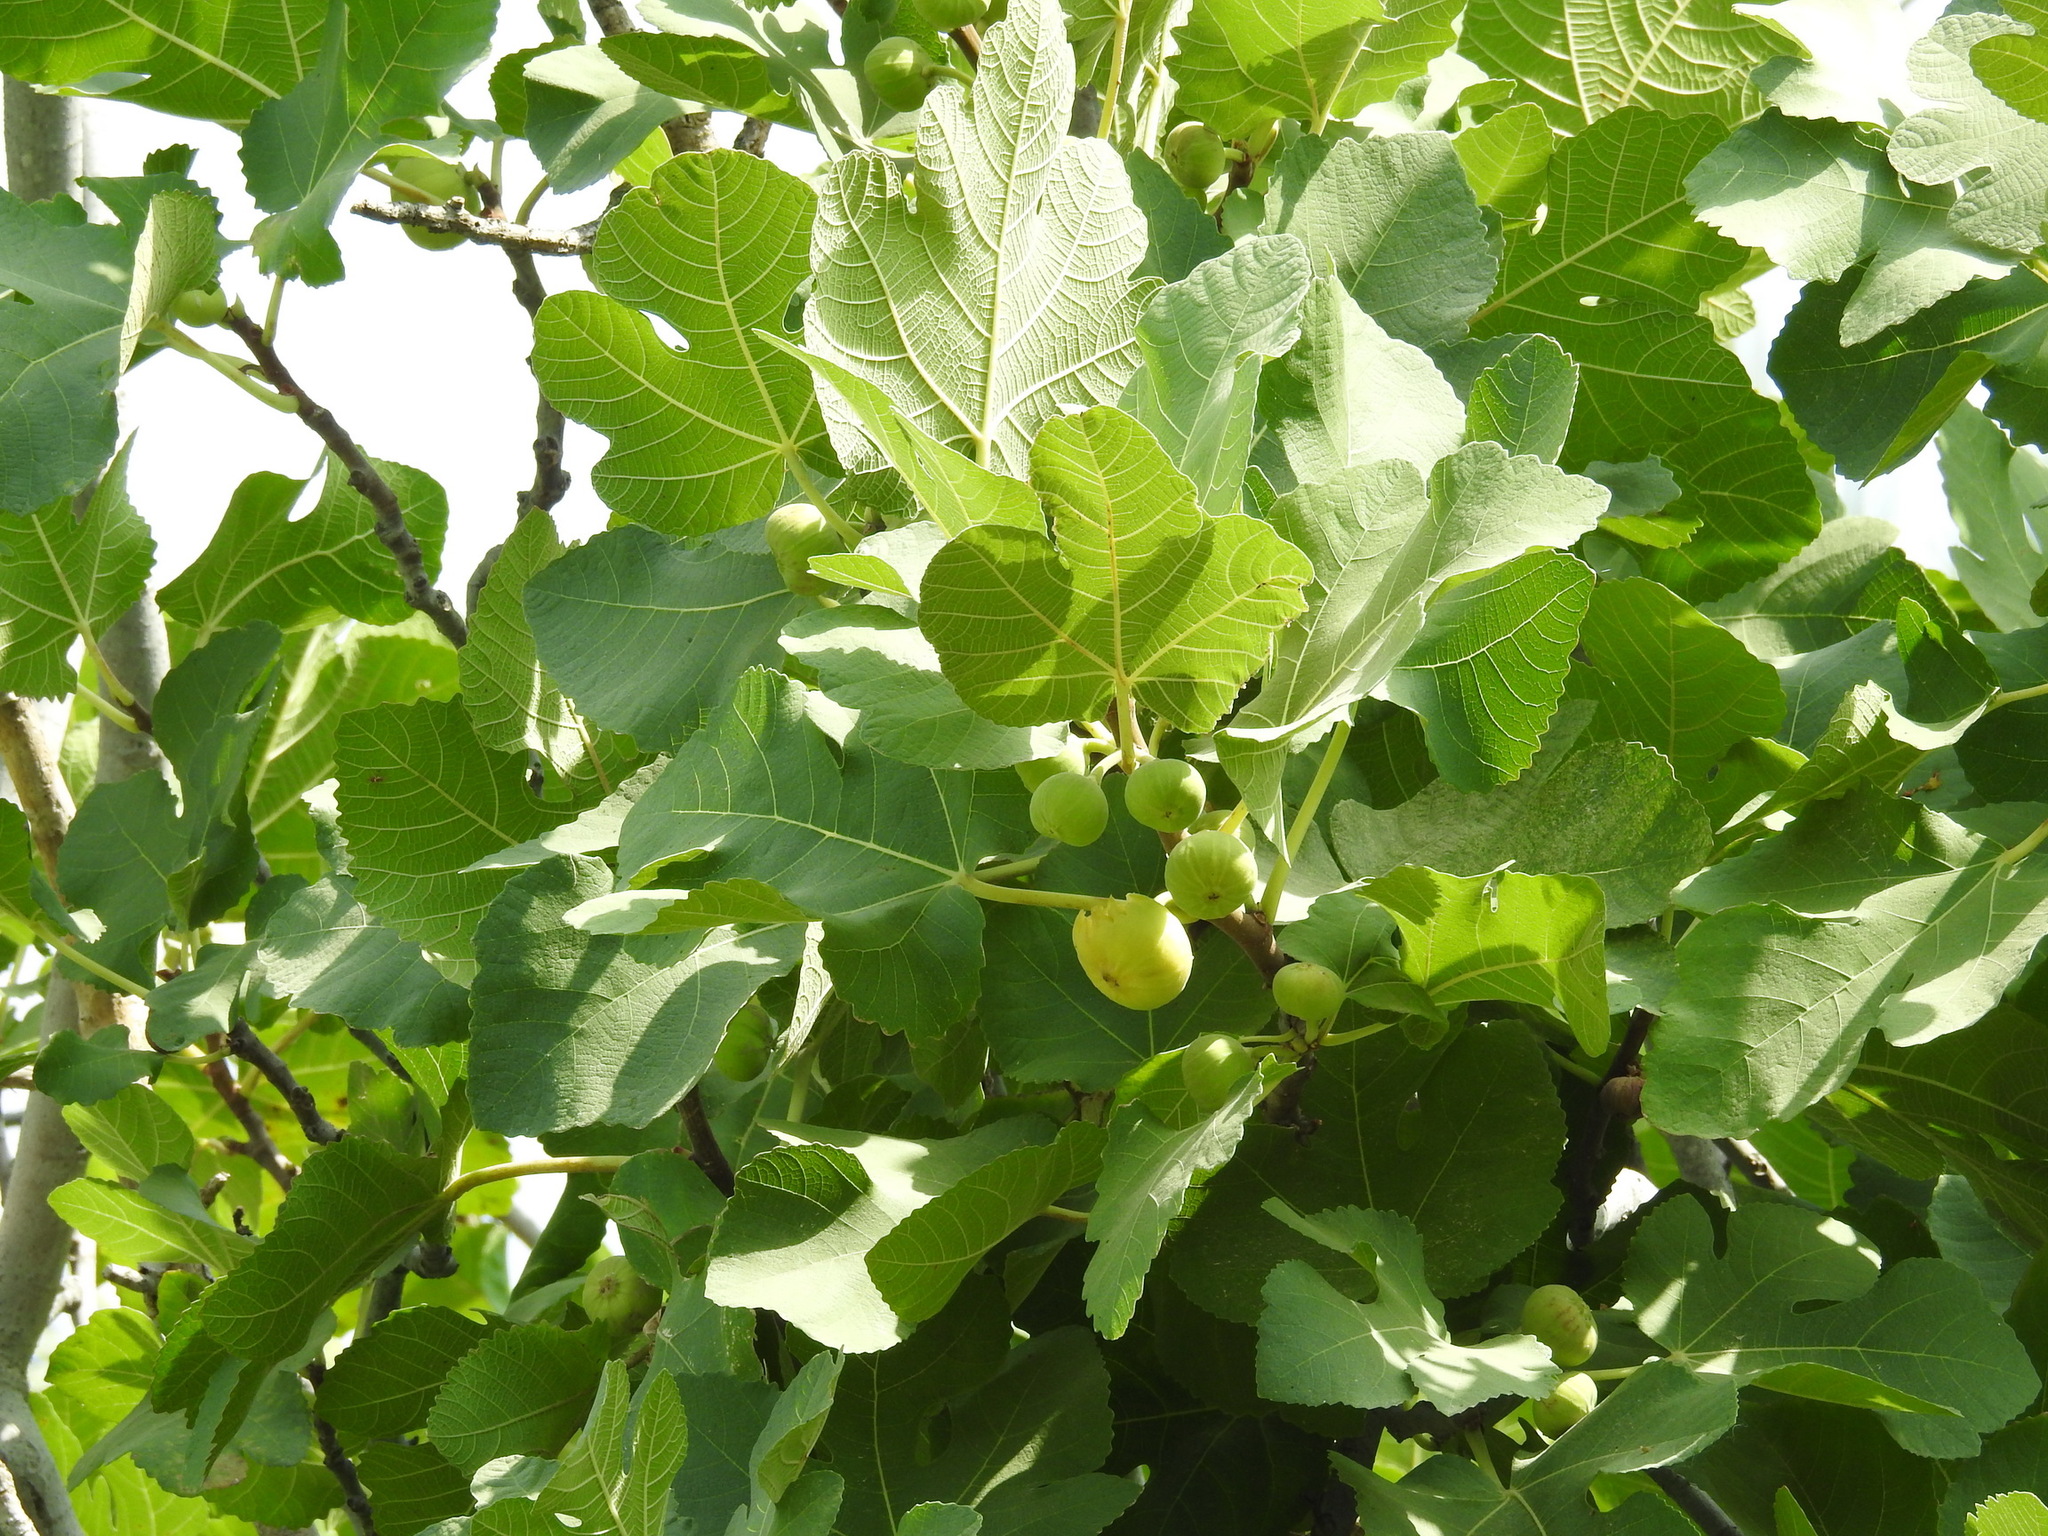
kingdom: Plantae
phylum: Tracheophyta
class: Magnoliopsida
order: Rosales
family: Moraceae
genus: Ficus
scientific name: Ficus carica
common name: Fig
